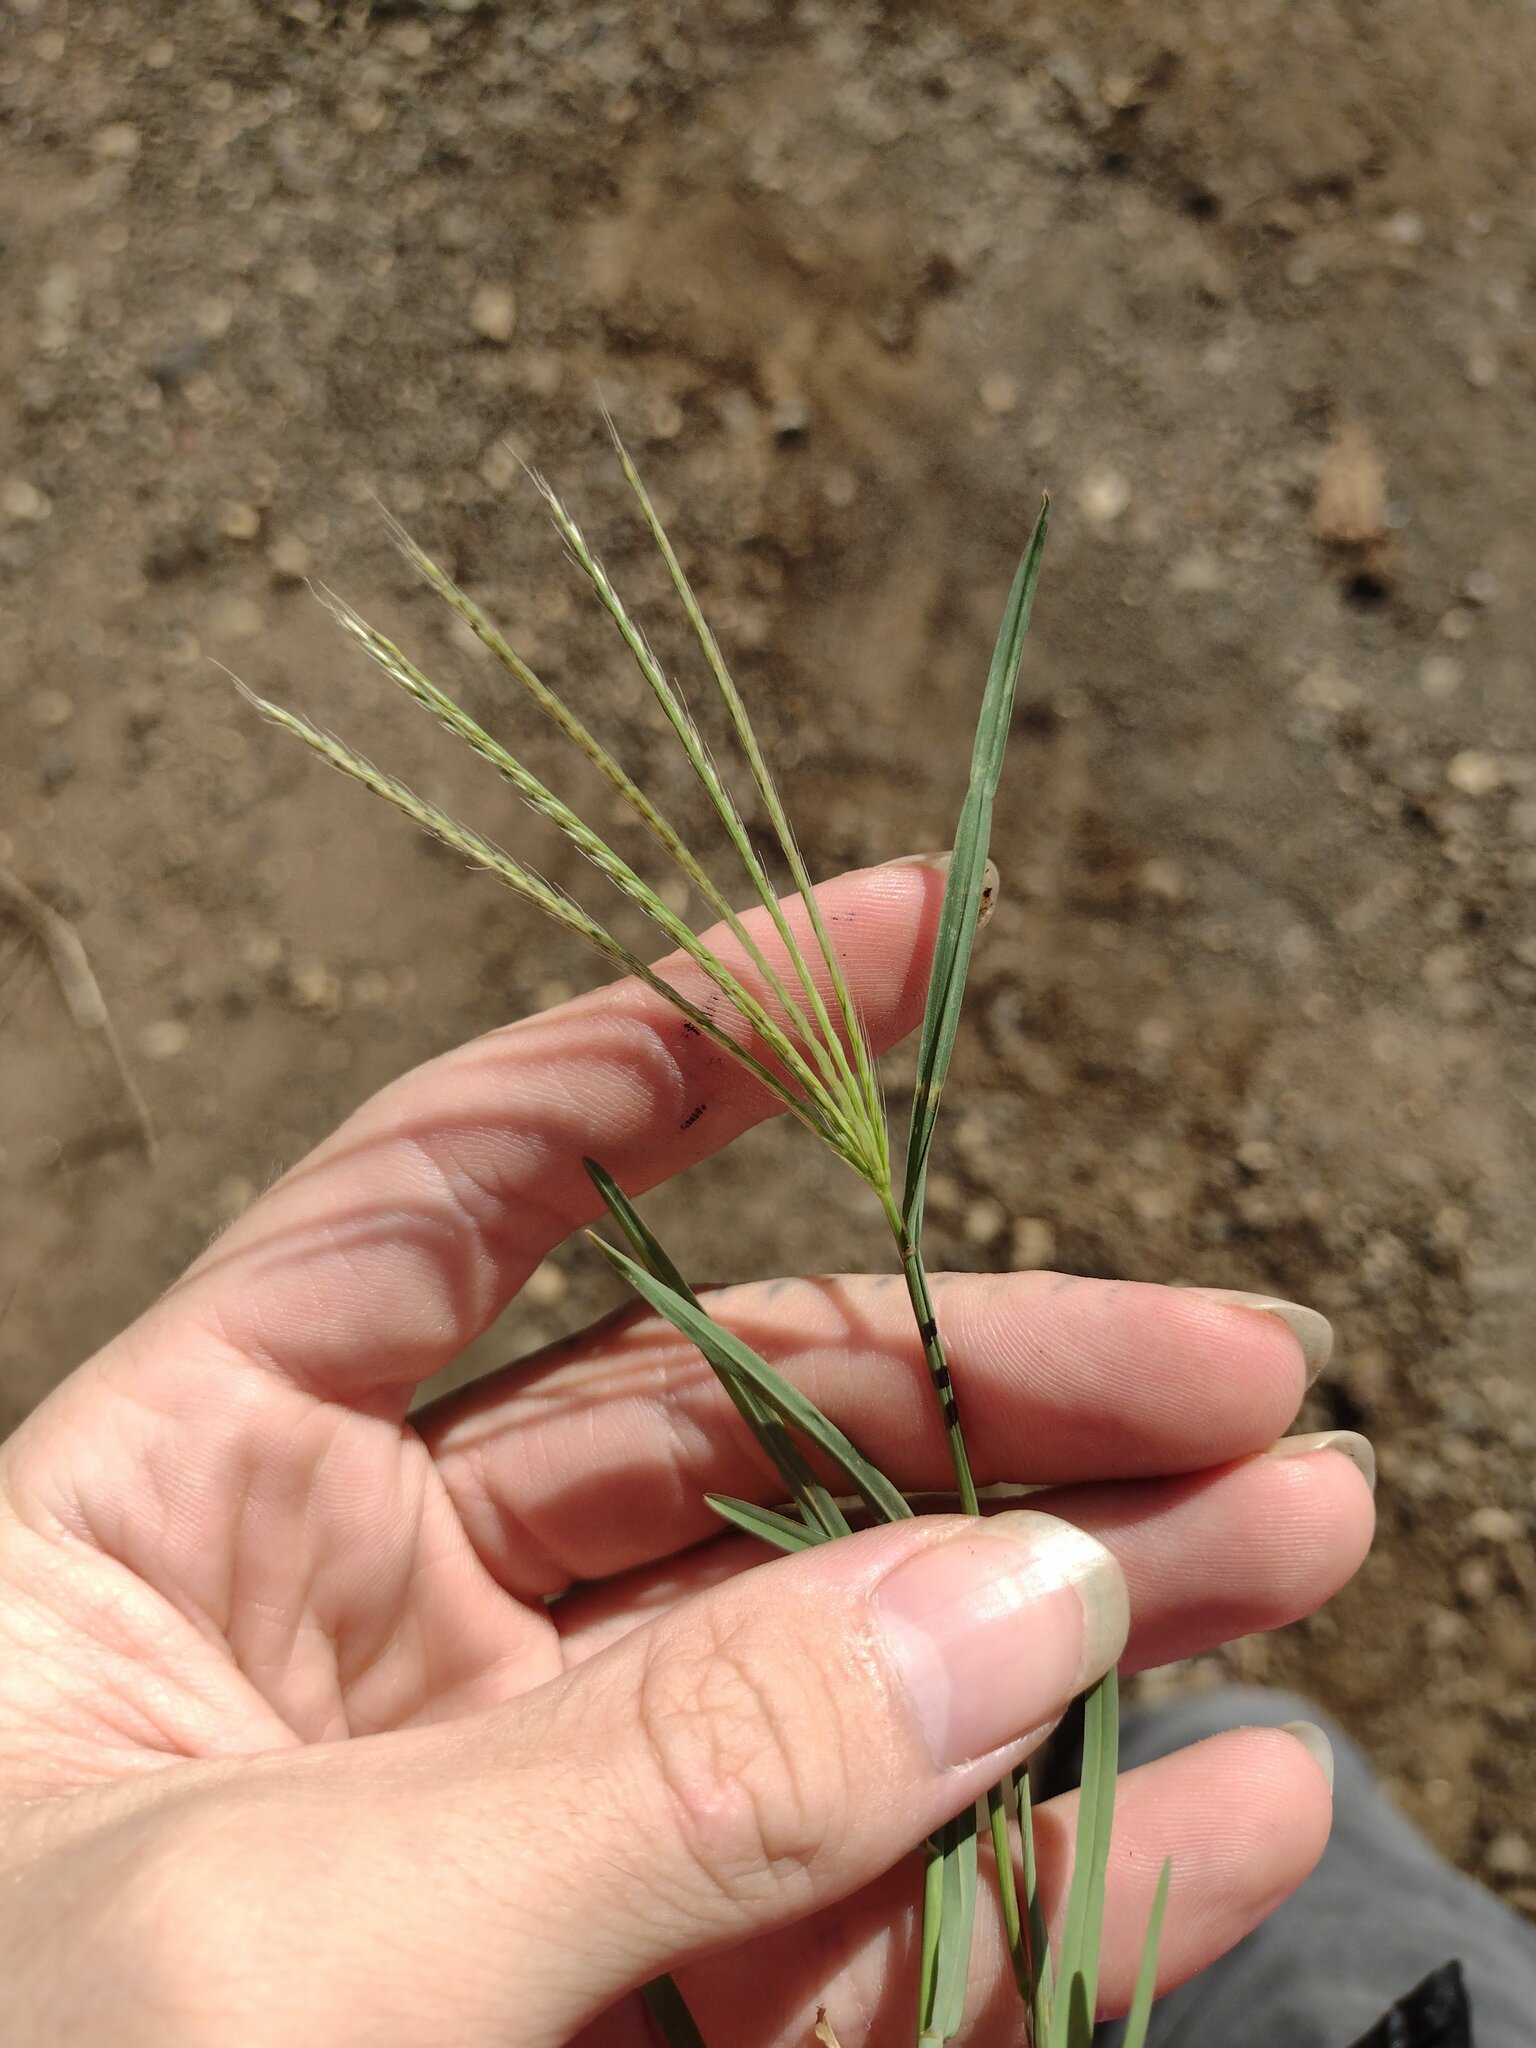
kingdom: Plantae
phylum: Tracheophyta
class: Liliopsida
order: Poales
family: Poaceae
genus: Chloris
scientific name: Chloris divaricata
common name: Spreading windmill grass
